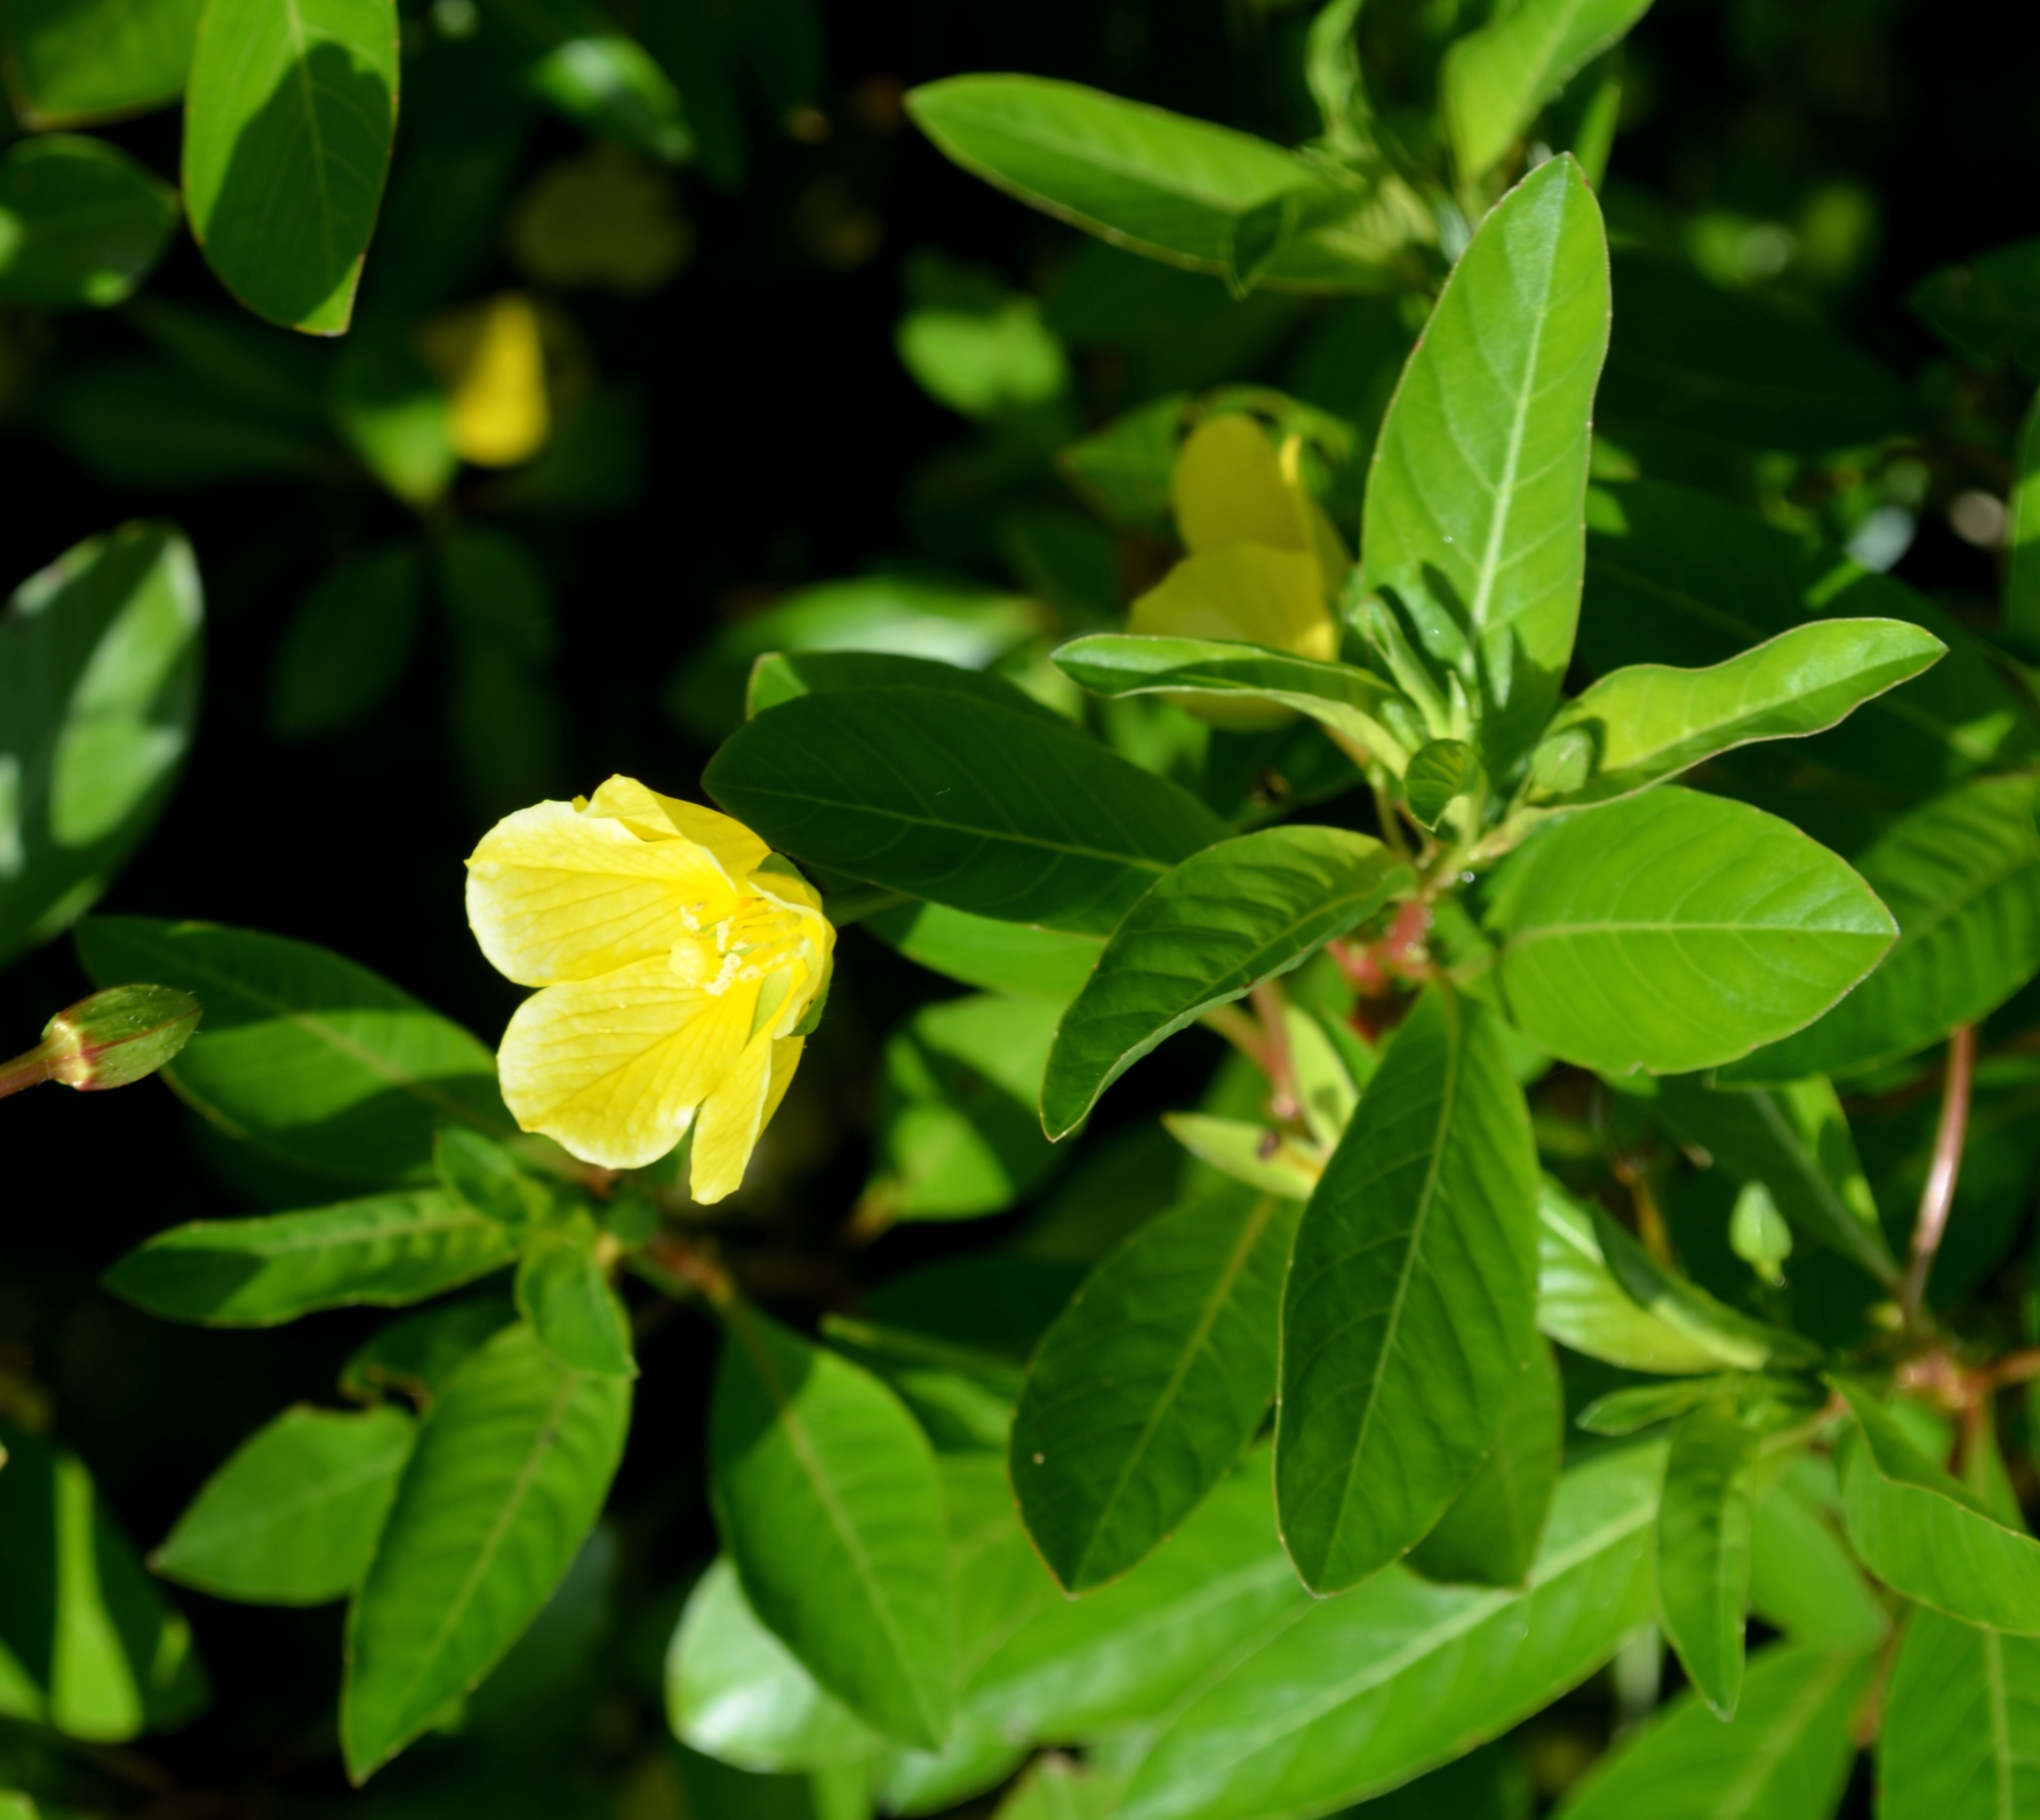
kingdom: Plantae
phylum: Tracheophyta
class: Magnoliopsida
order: Myrtales
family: Onagraceae
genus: Ludwigia
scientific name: Ludwigia peploides
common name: Floating primrose-willow
